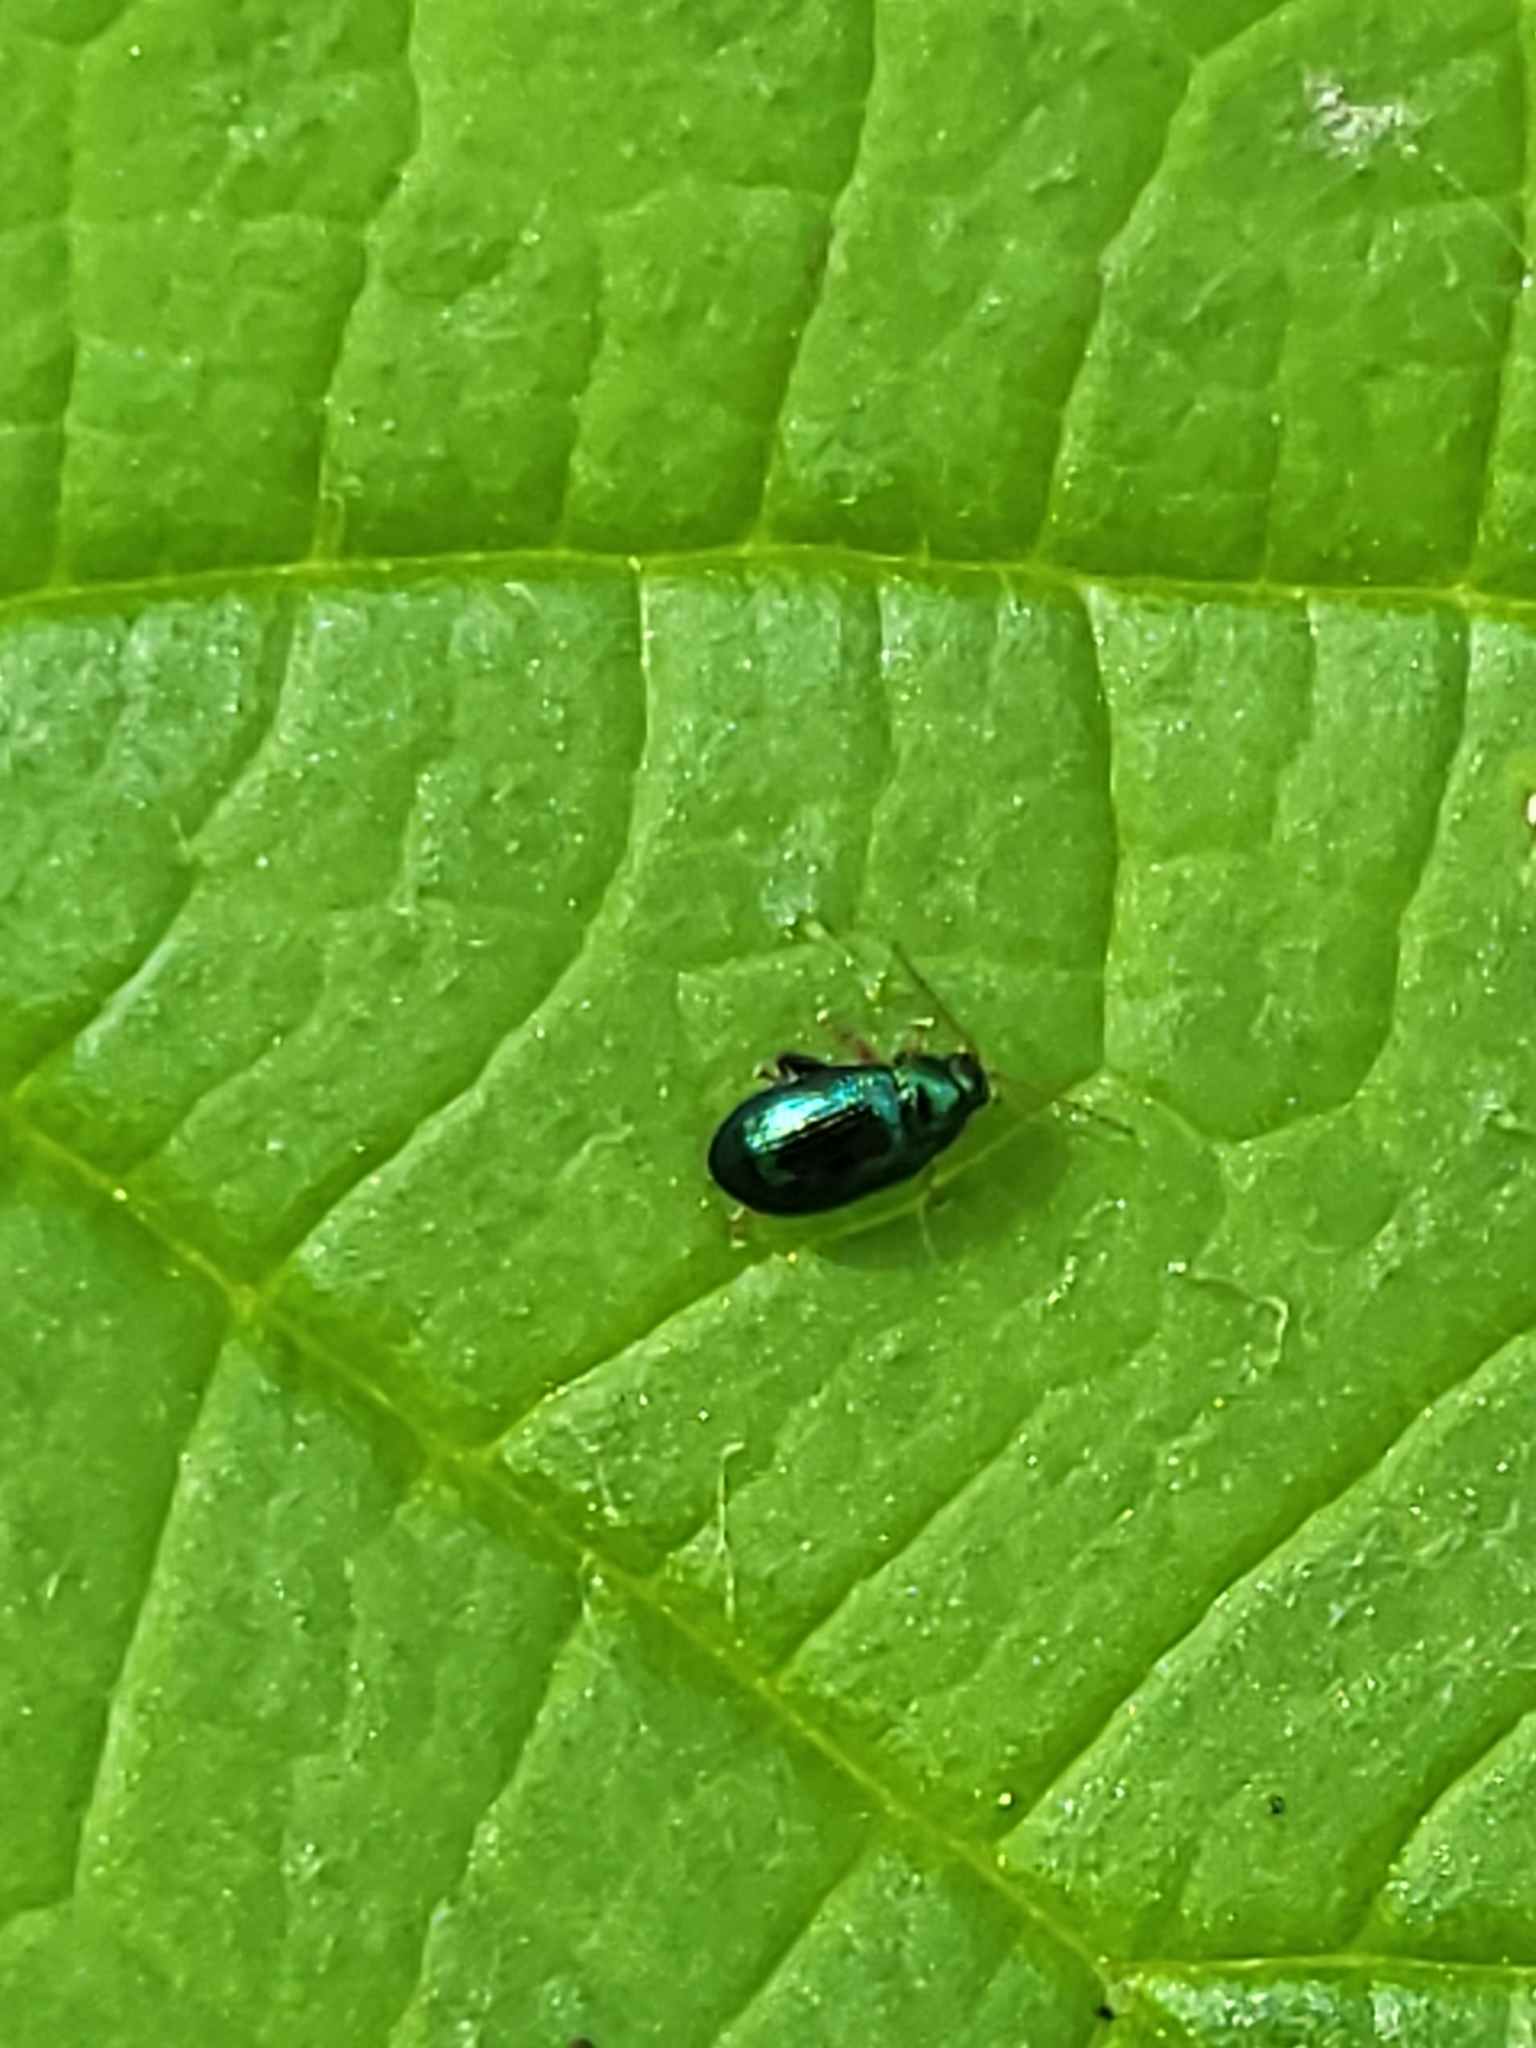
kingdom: Animalia
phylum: Arthropoda
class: Insecta
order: Coleoptera
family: Chrysomelidae
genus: Crepidodera
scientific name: Crepidodera aurata
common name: Willow flea beetle
